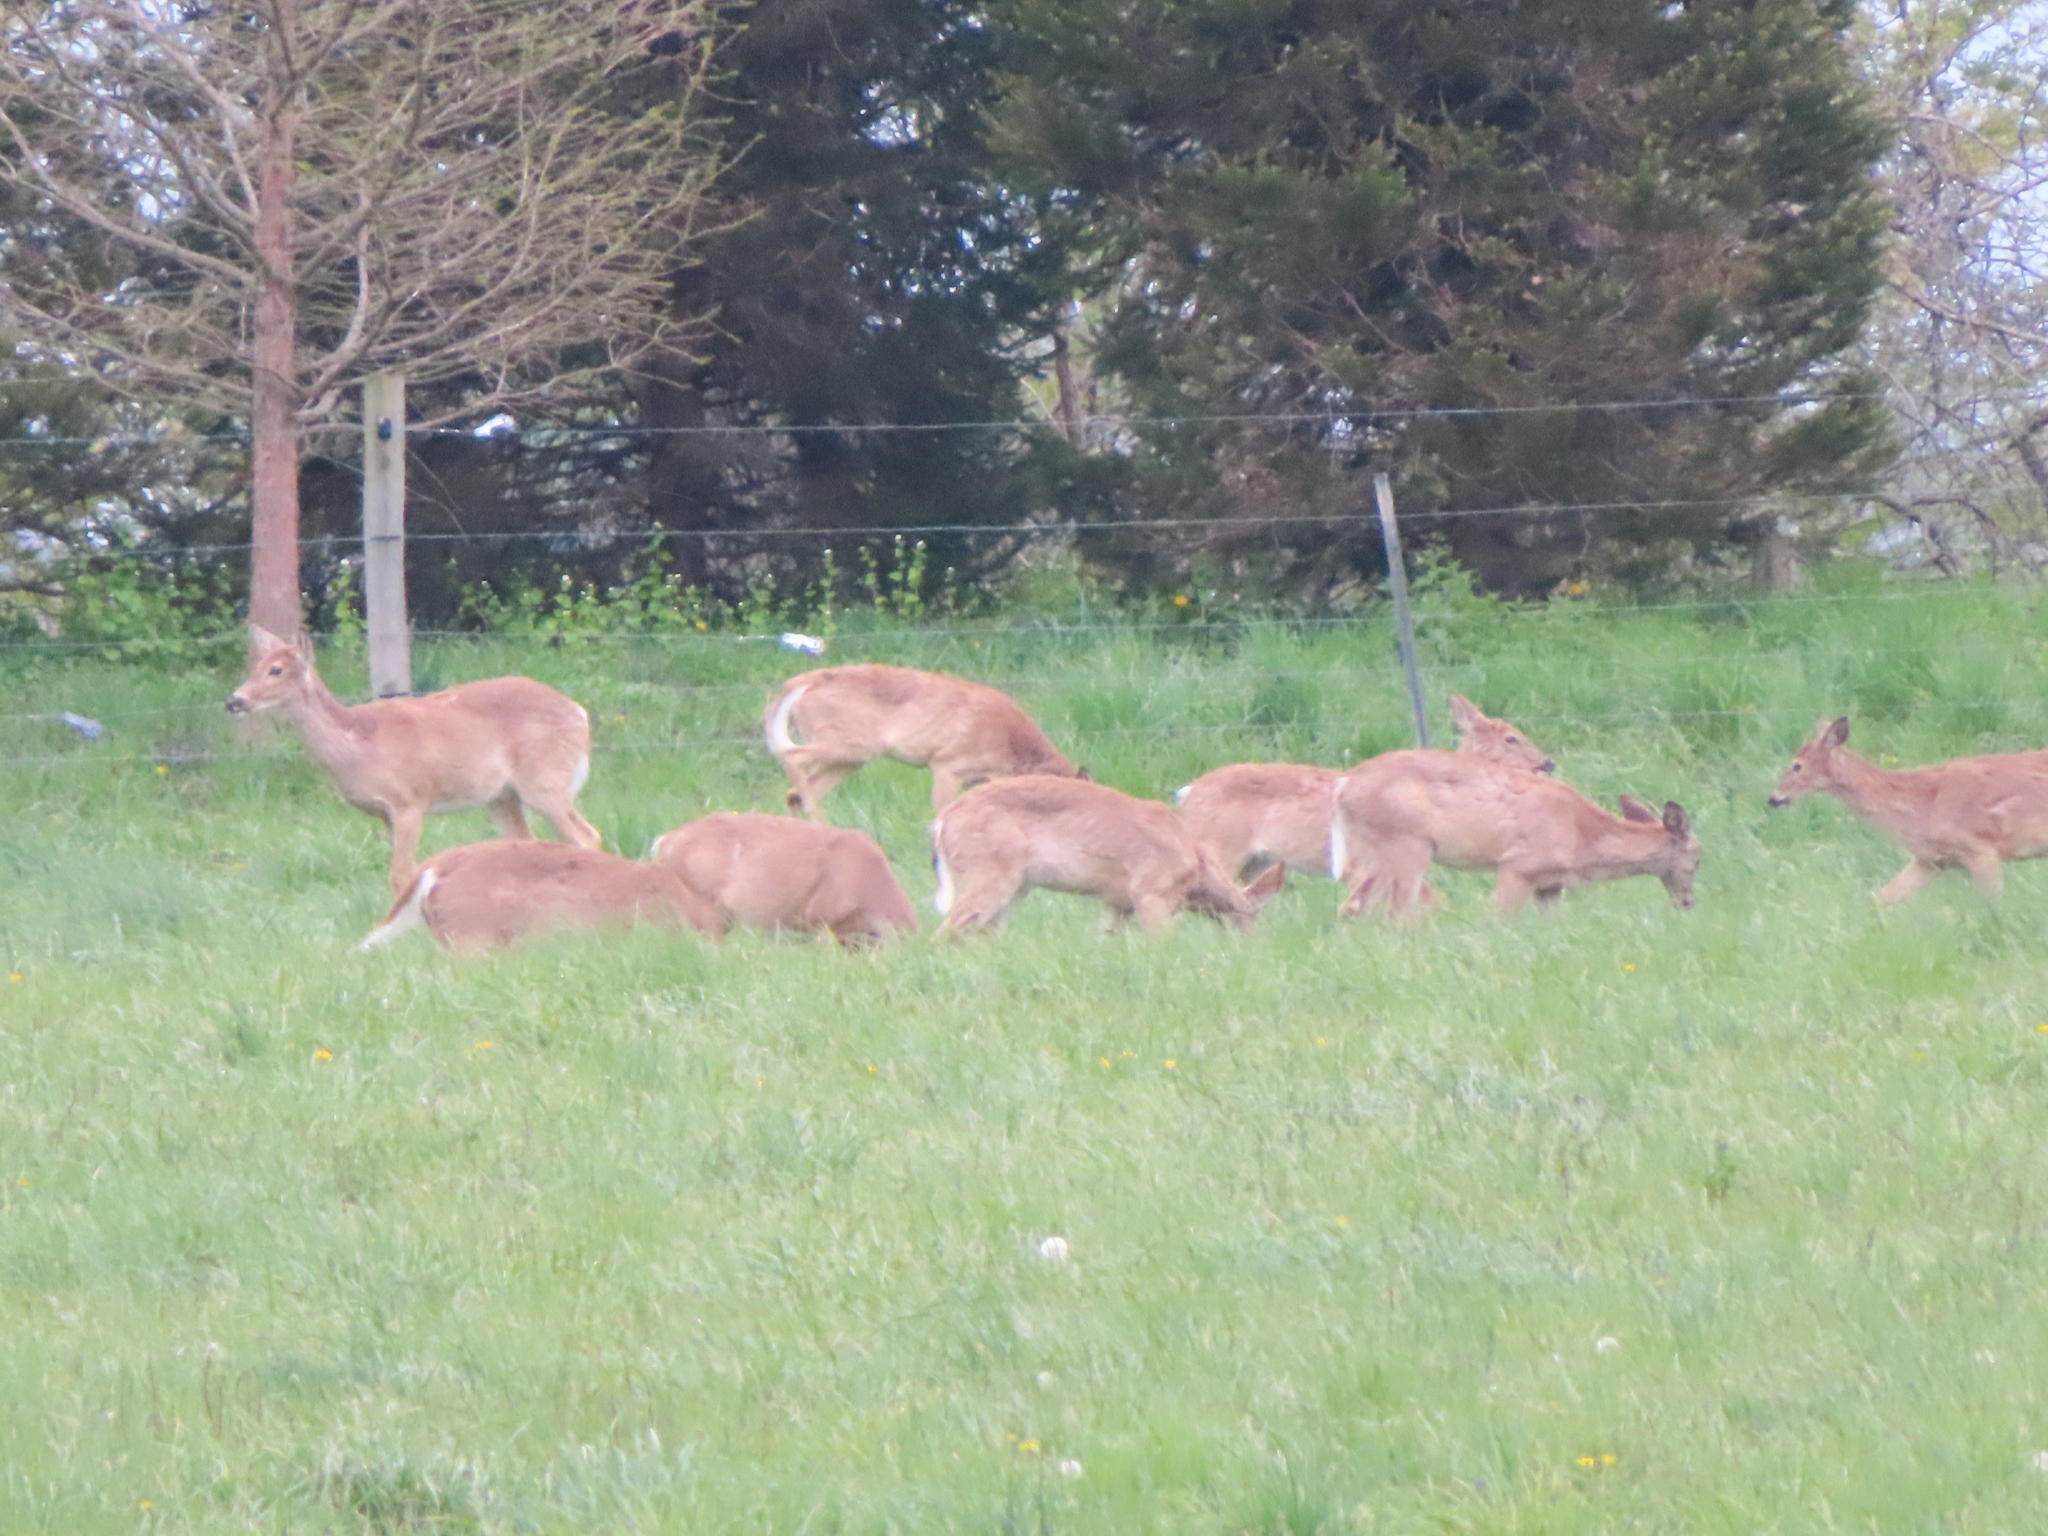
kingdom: Animalia
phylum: Chordata
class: Mammalia
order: Artiodactyla
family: Cervidae
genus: Odocoileus
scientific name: Odocoileus virginianus
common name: White-tailed deer
